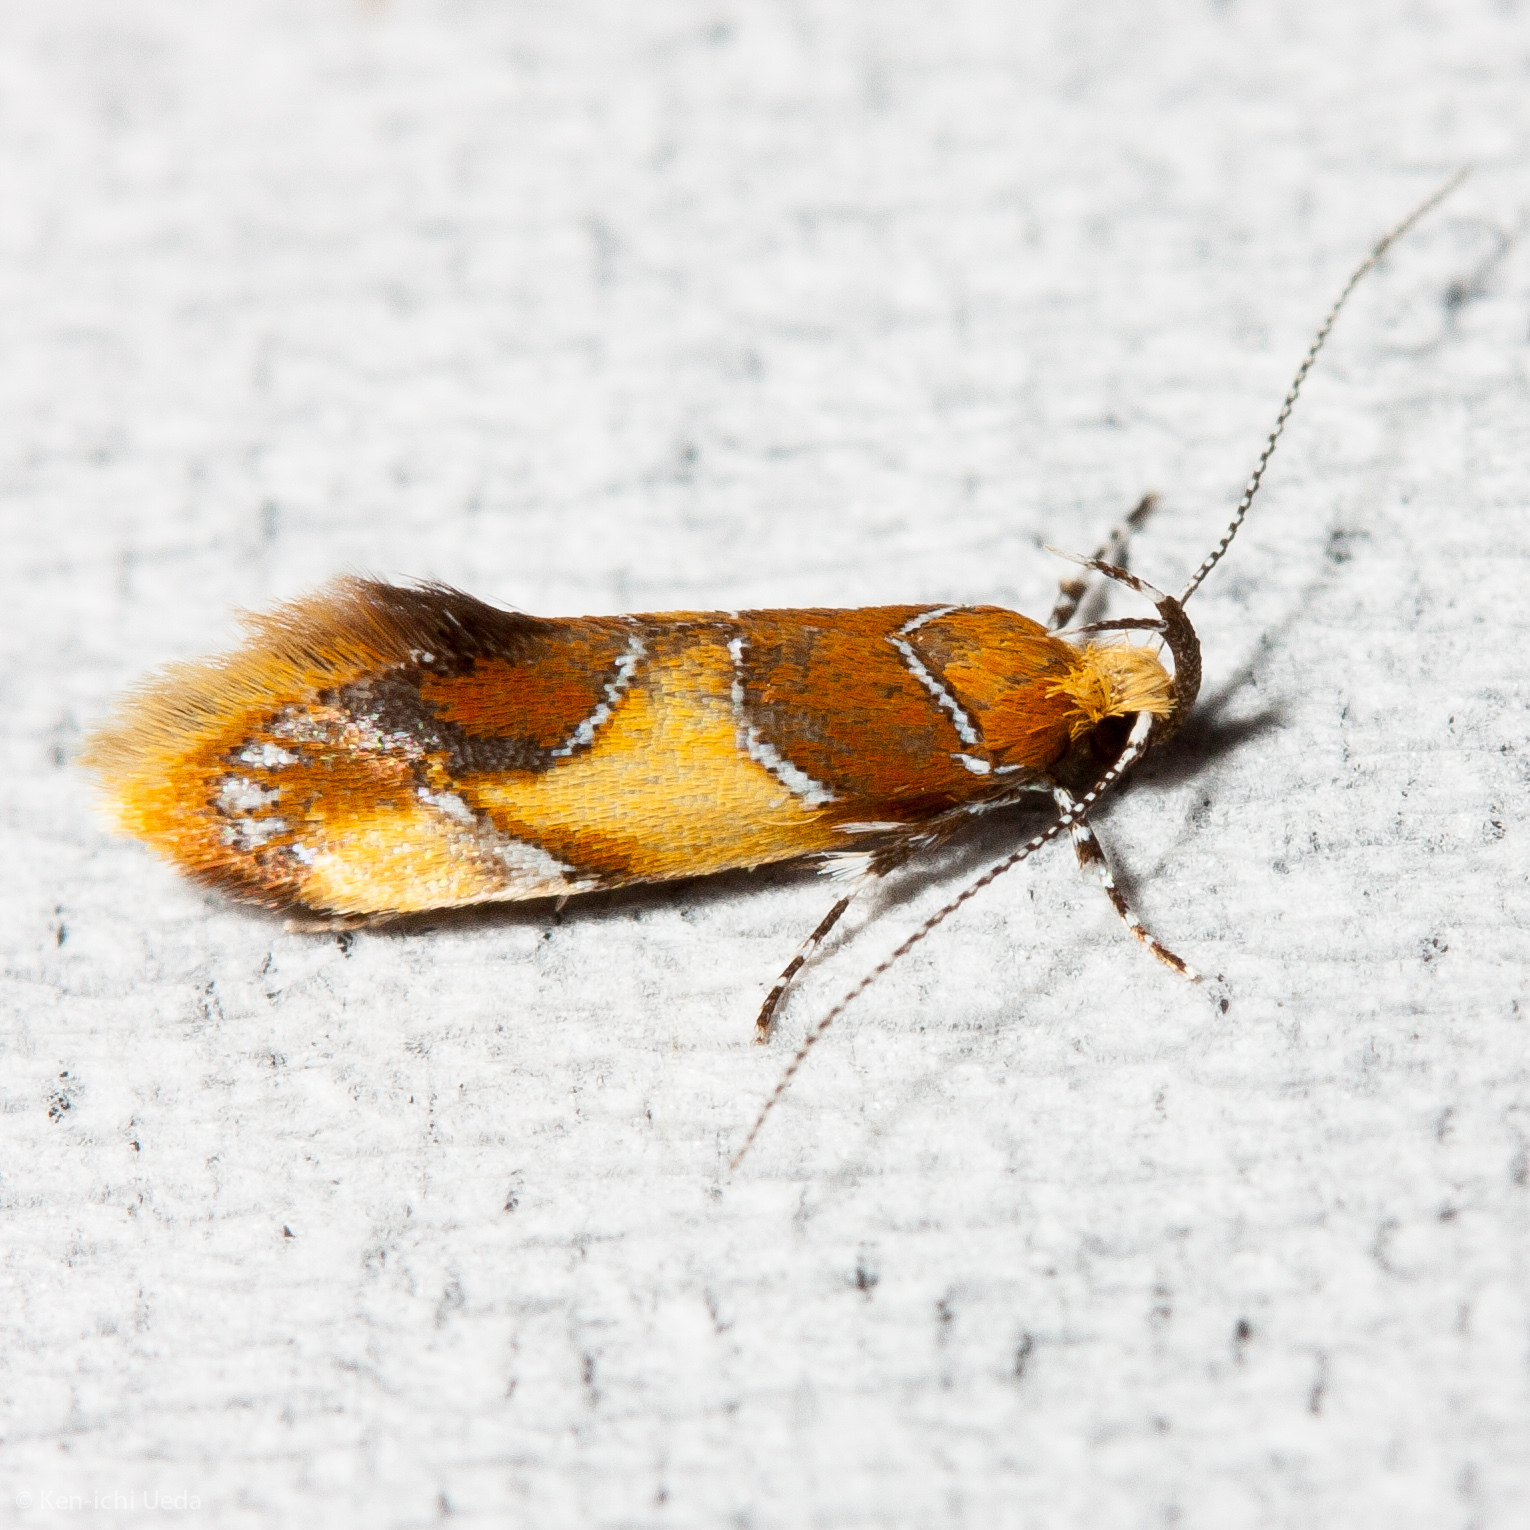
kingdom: Animalia
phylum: Arthropoda
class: Insecta
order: Lepidoptera
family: Oecophoridae
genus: Callima
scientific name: Callima argenticinctella
